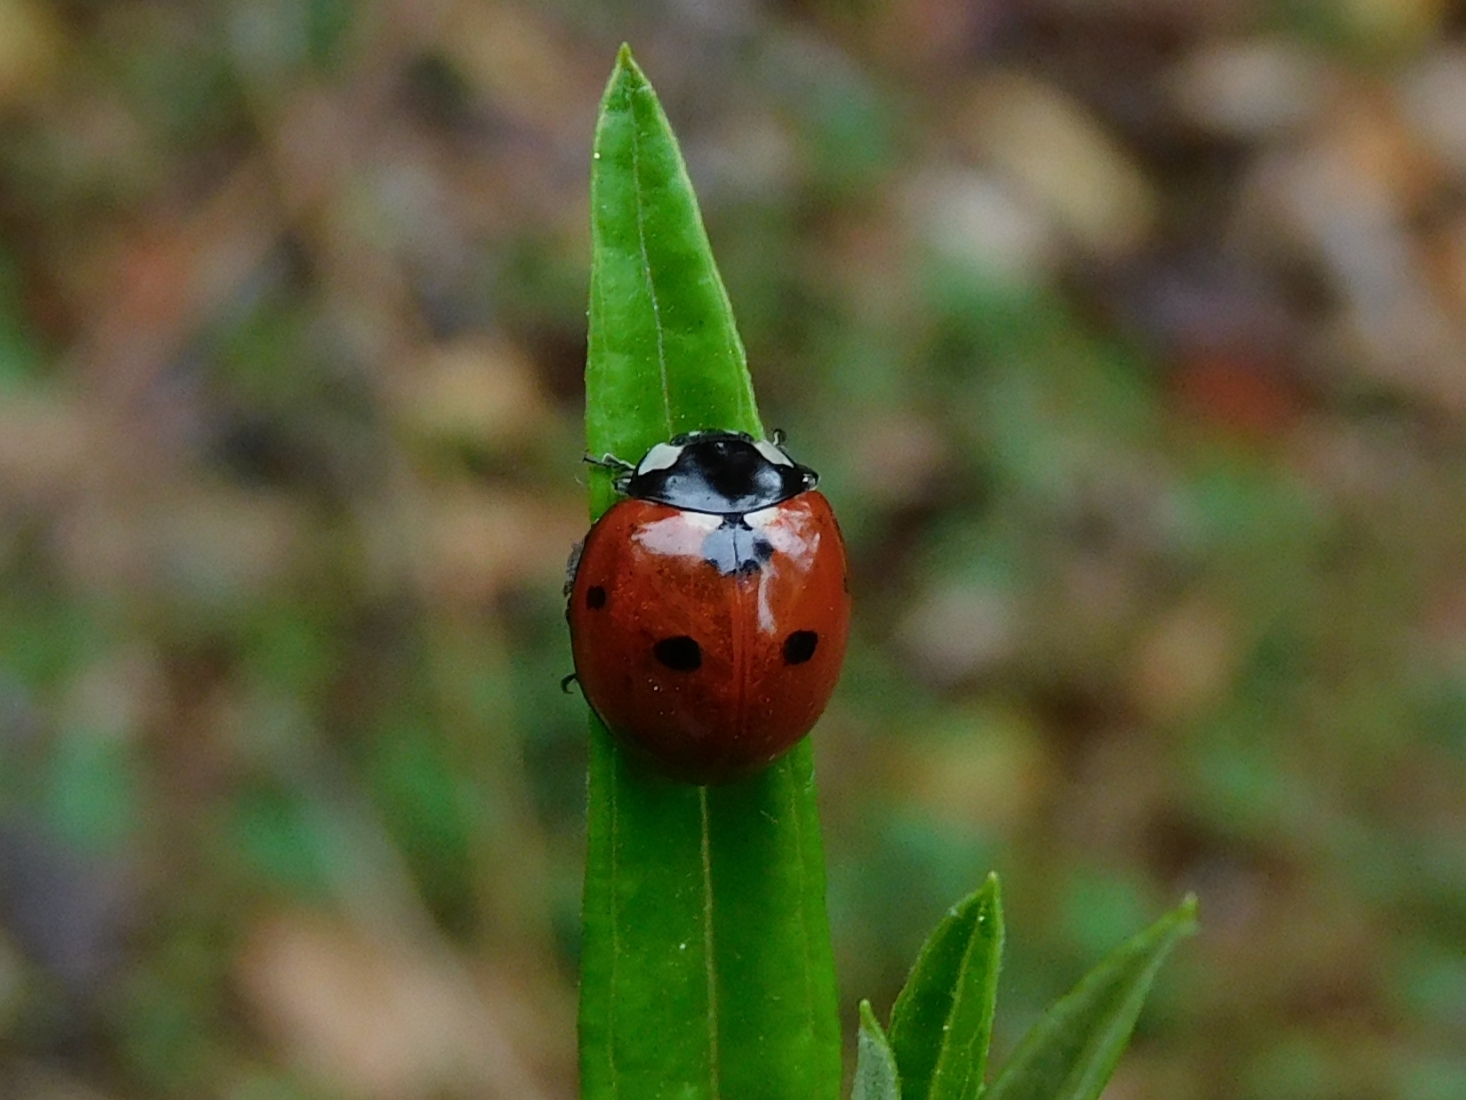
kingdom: Animalia
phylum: Arthropoda
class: Insecta
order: Coleoptera
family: Coccinellidae
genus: Coccinella
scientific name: Coccinella septempunctata
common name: Sevenspotted lady beetle
